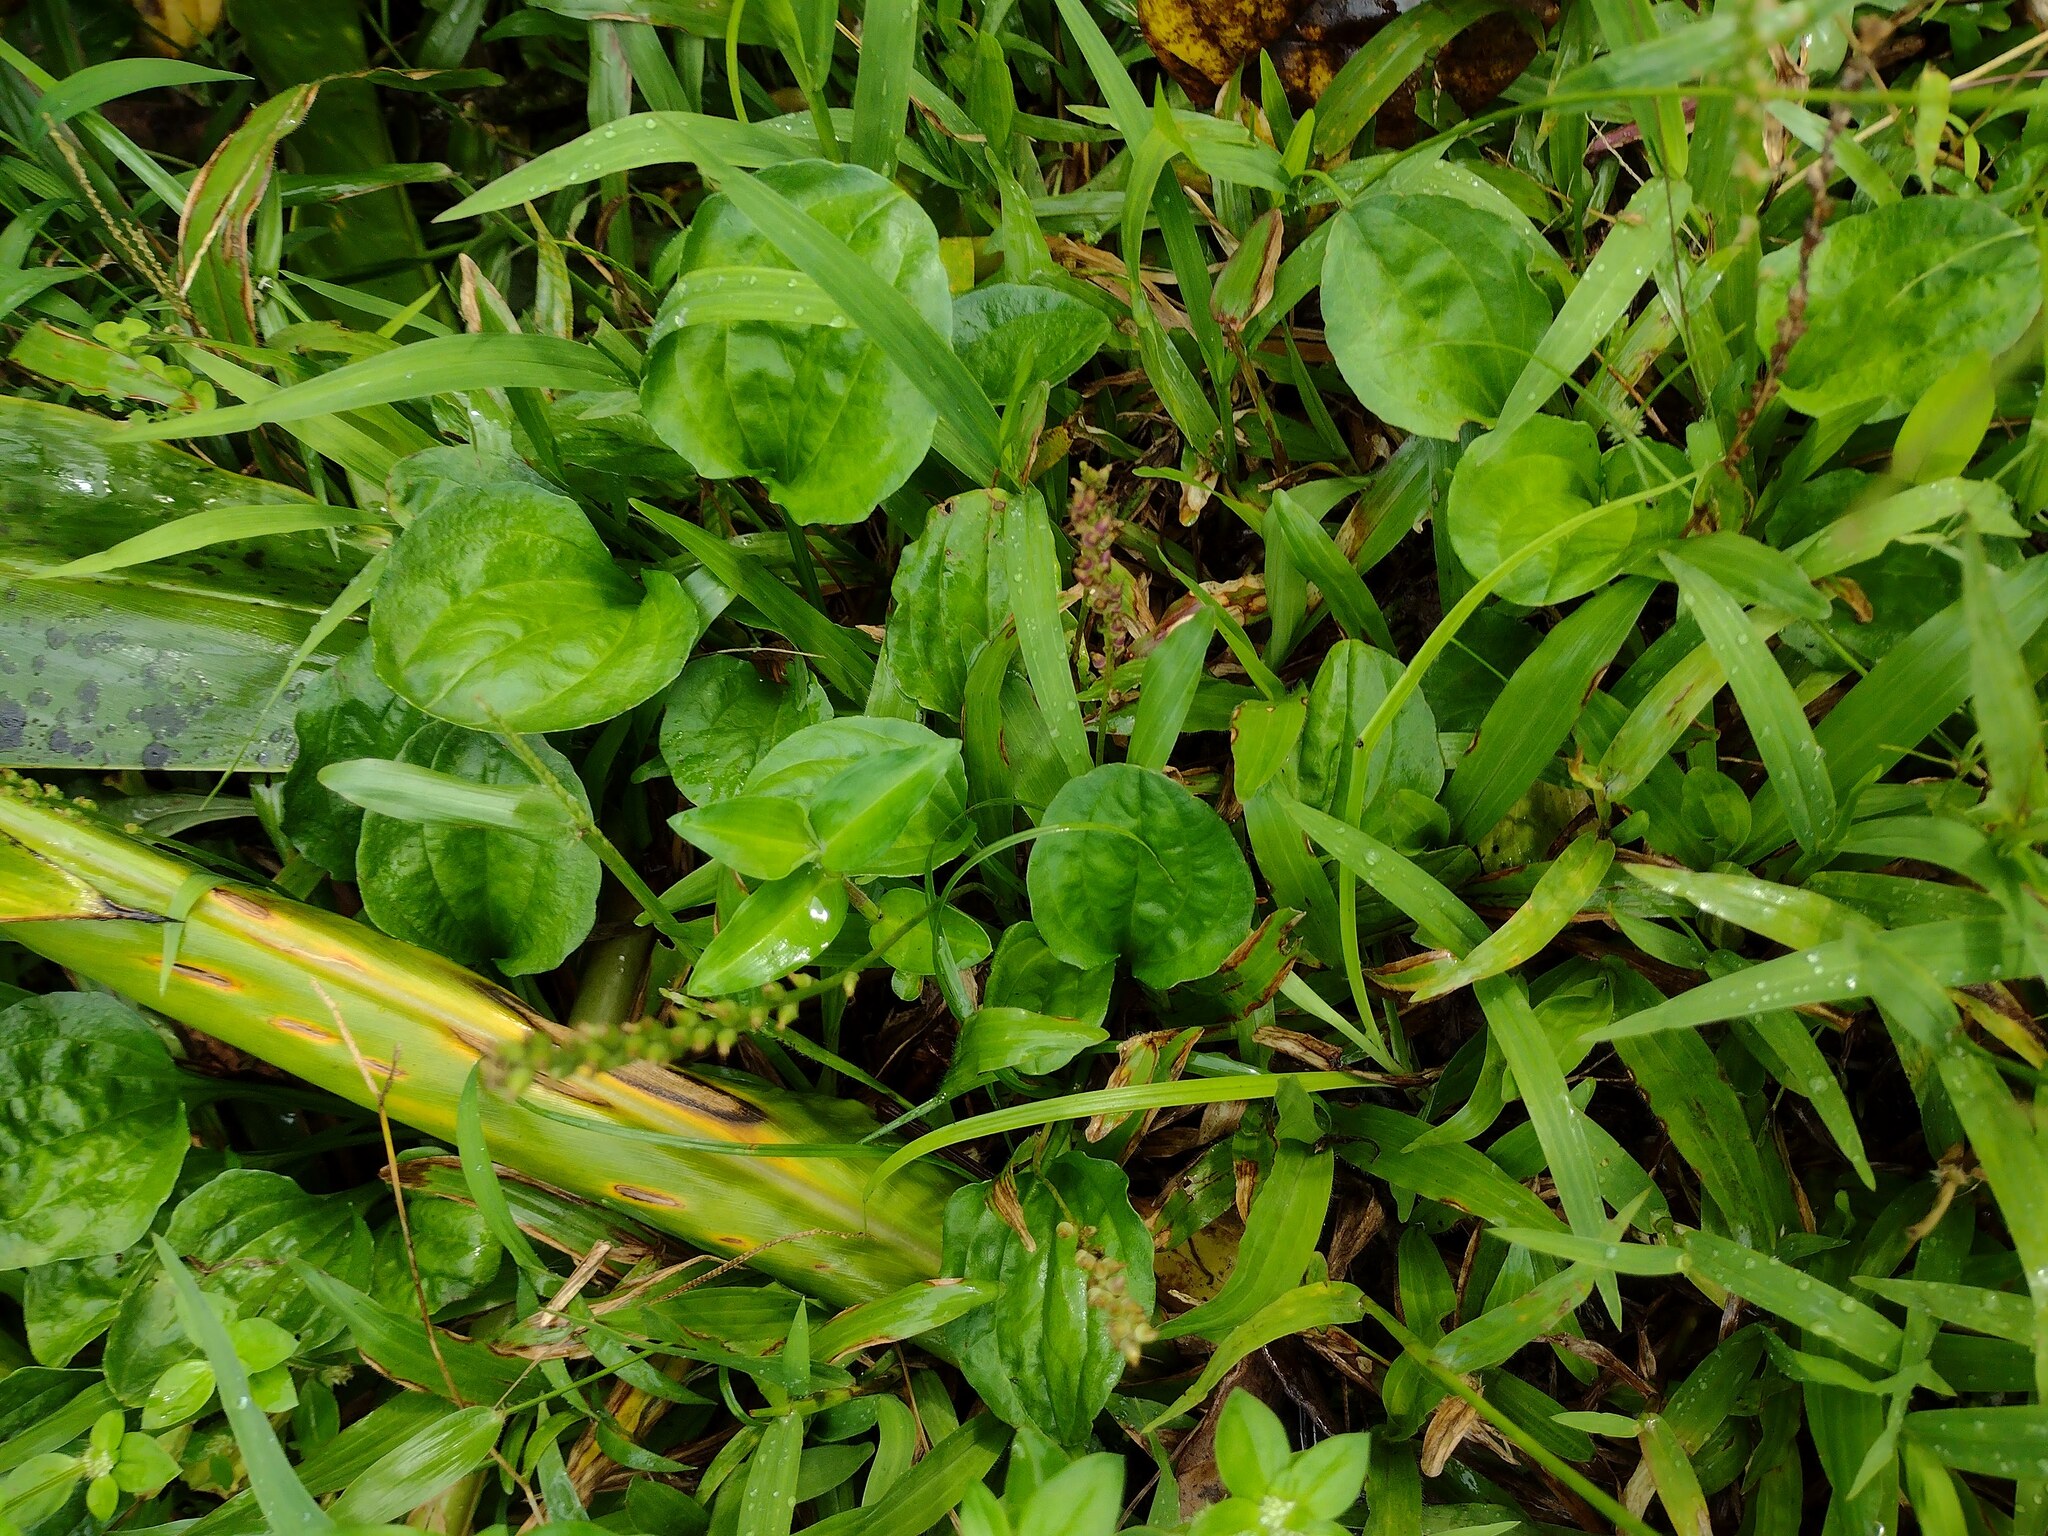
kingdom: Plantae
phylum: Tracheophyta
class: Magnoliopsida
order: Lamiales
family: Plantaginaceae
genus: Plantago
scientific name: Plantago major
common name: Common plantain
